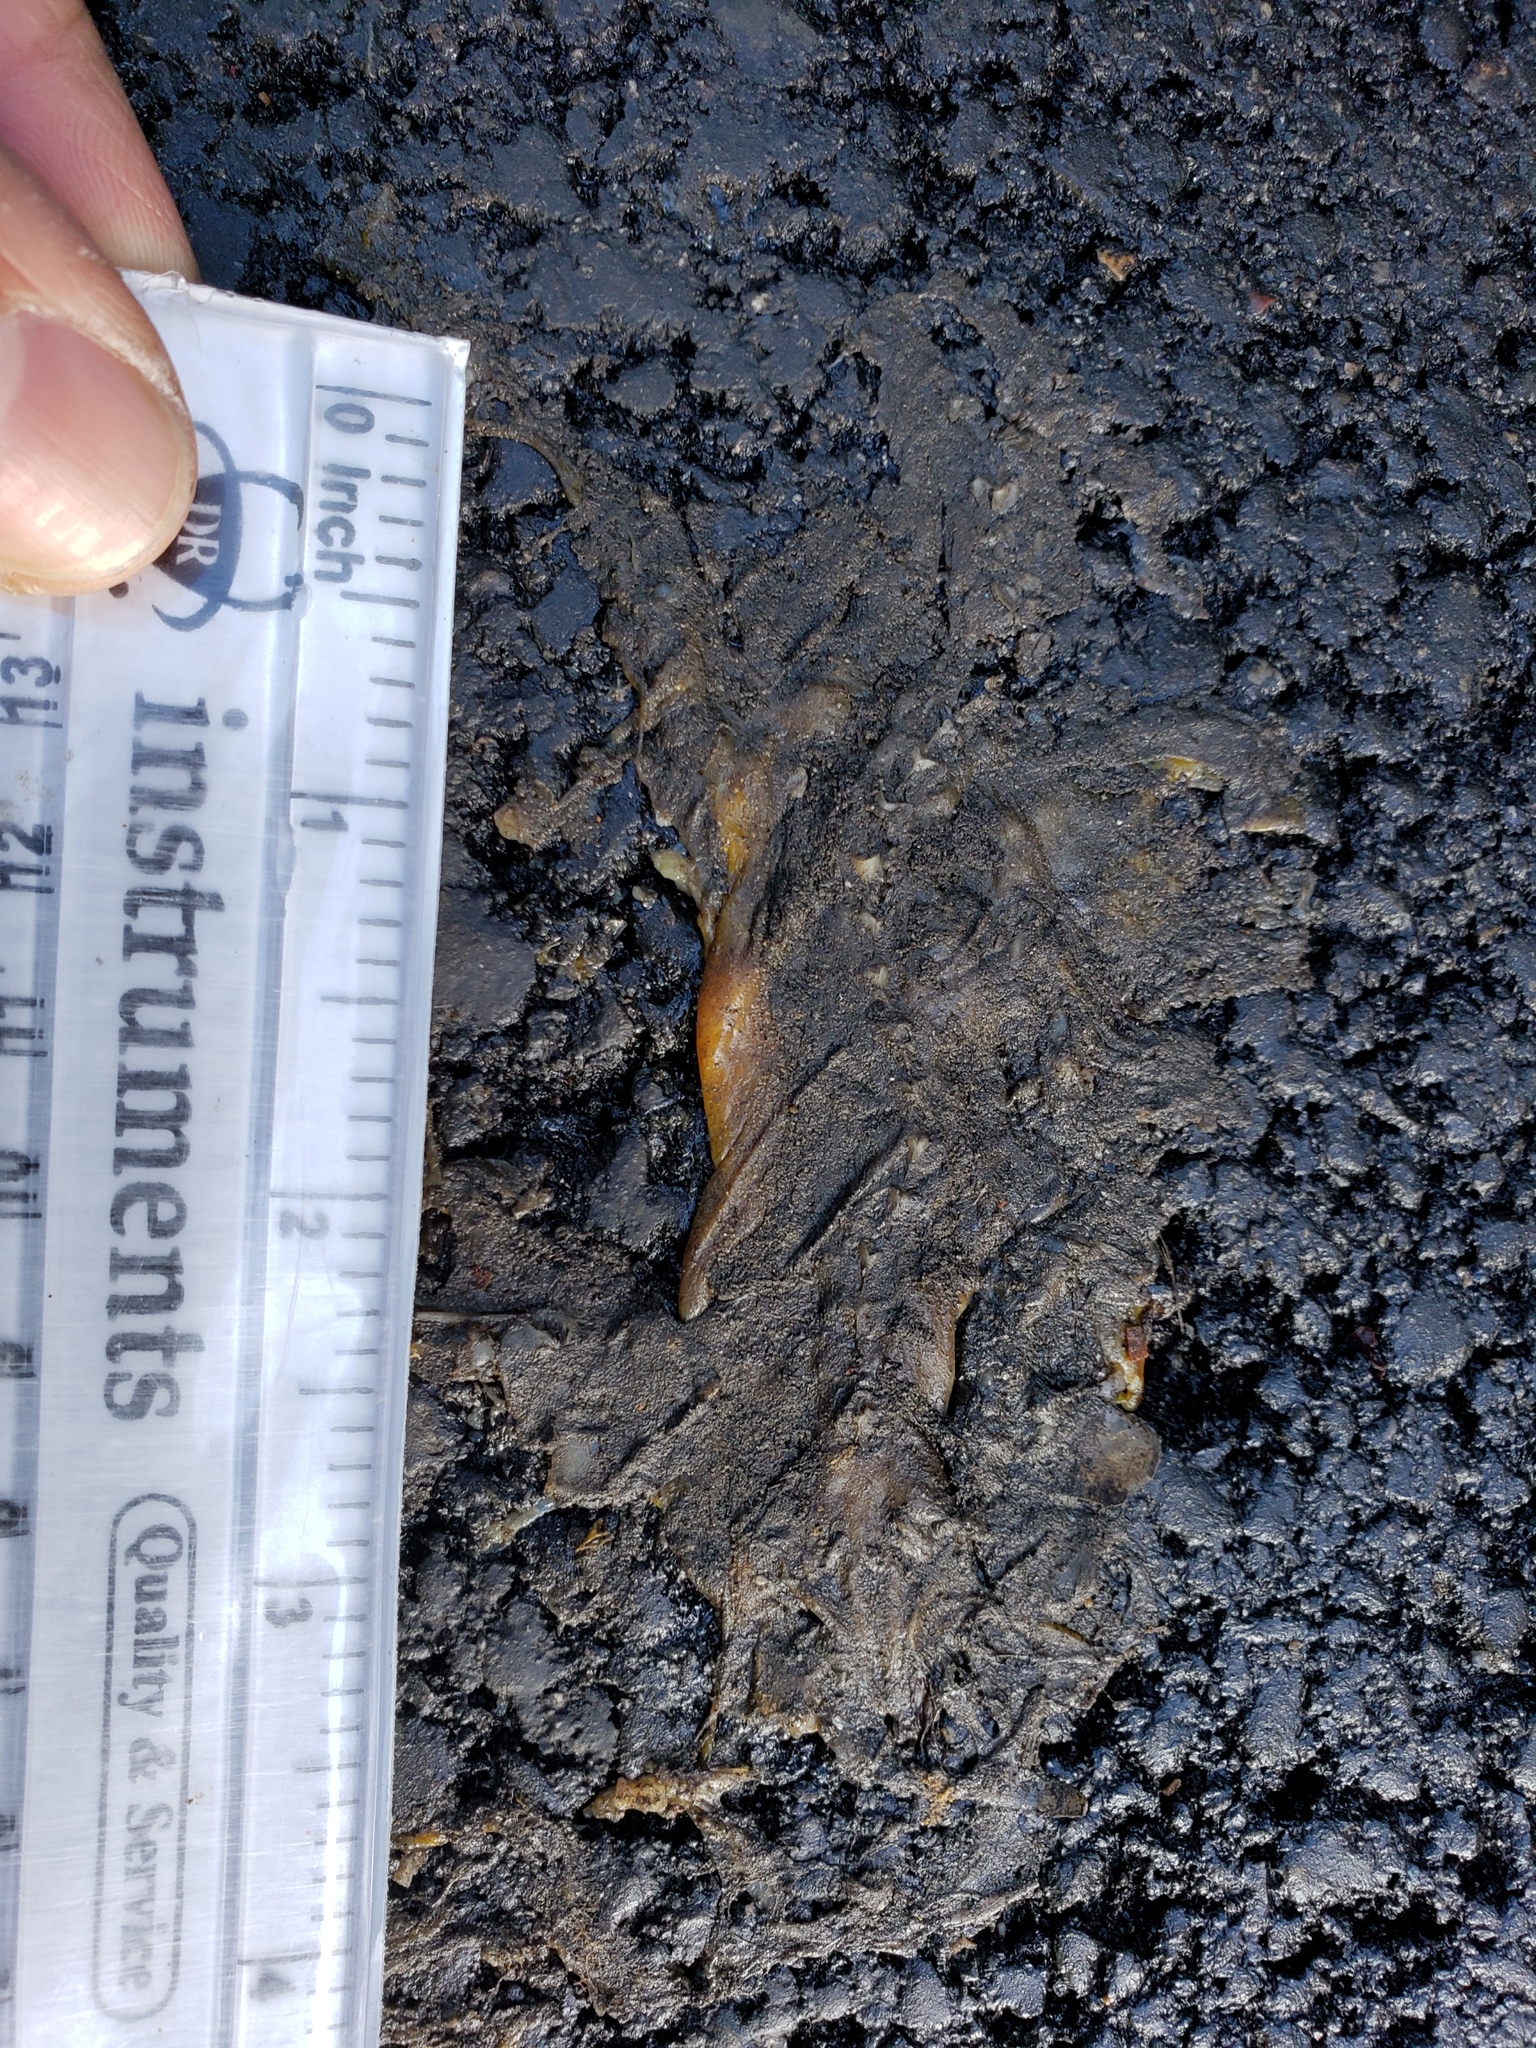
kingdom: Animalia
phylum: Chordata
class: Amphibia
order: Caudata
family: Salamandridae
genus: Taricha
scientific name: Taricha
